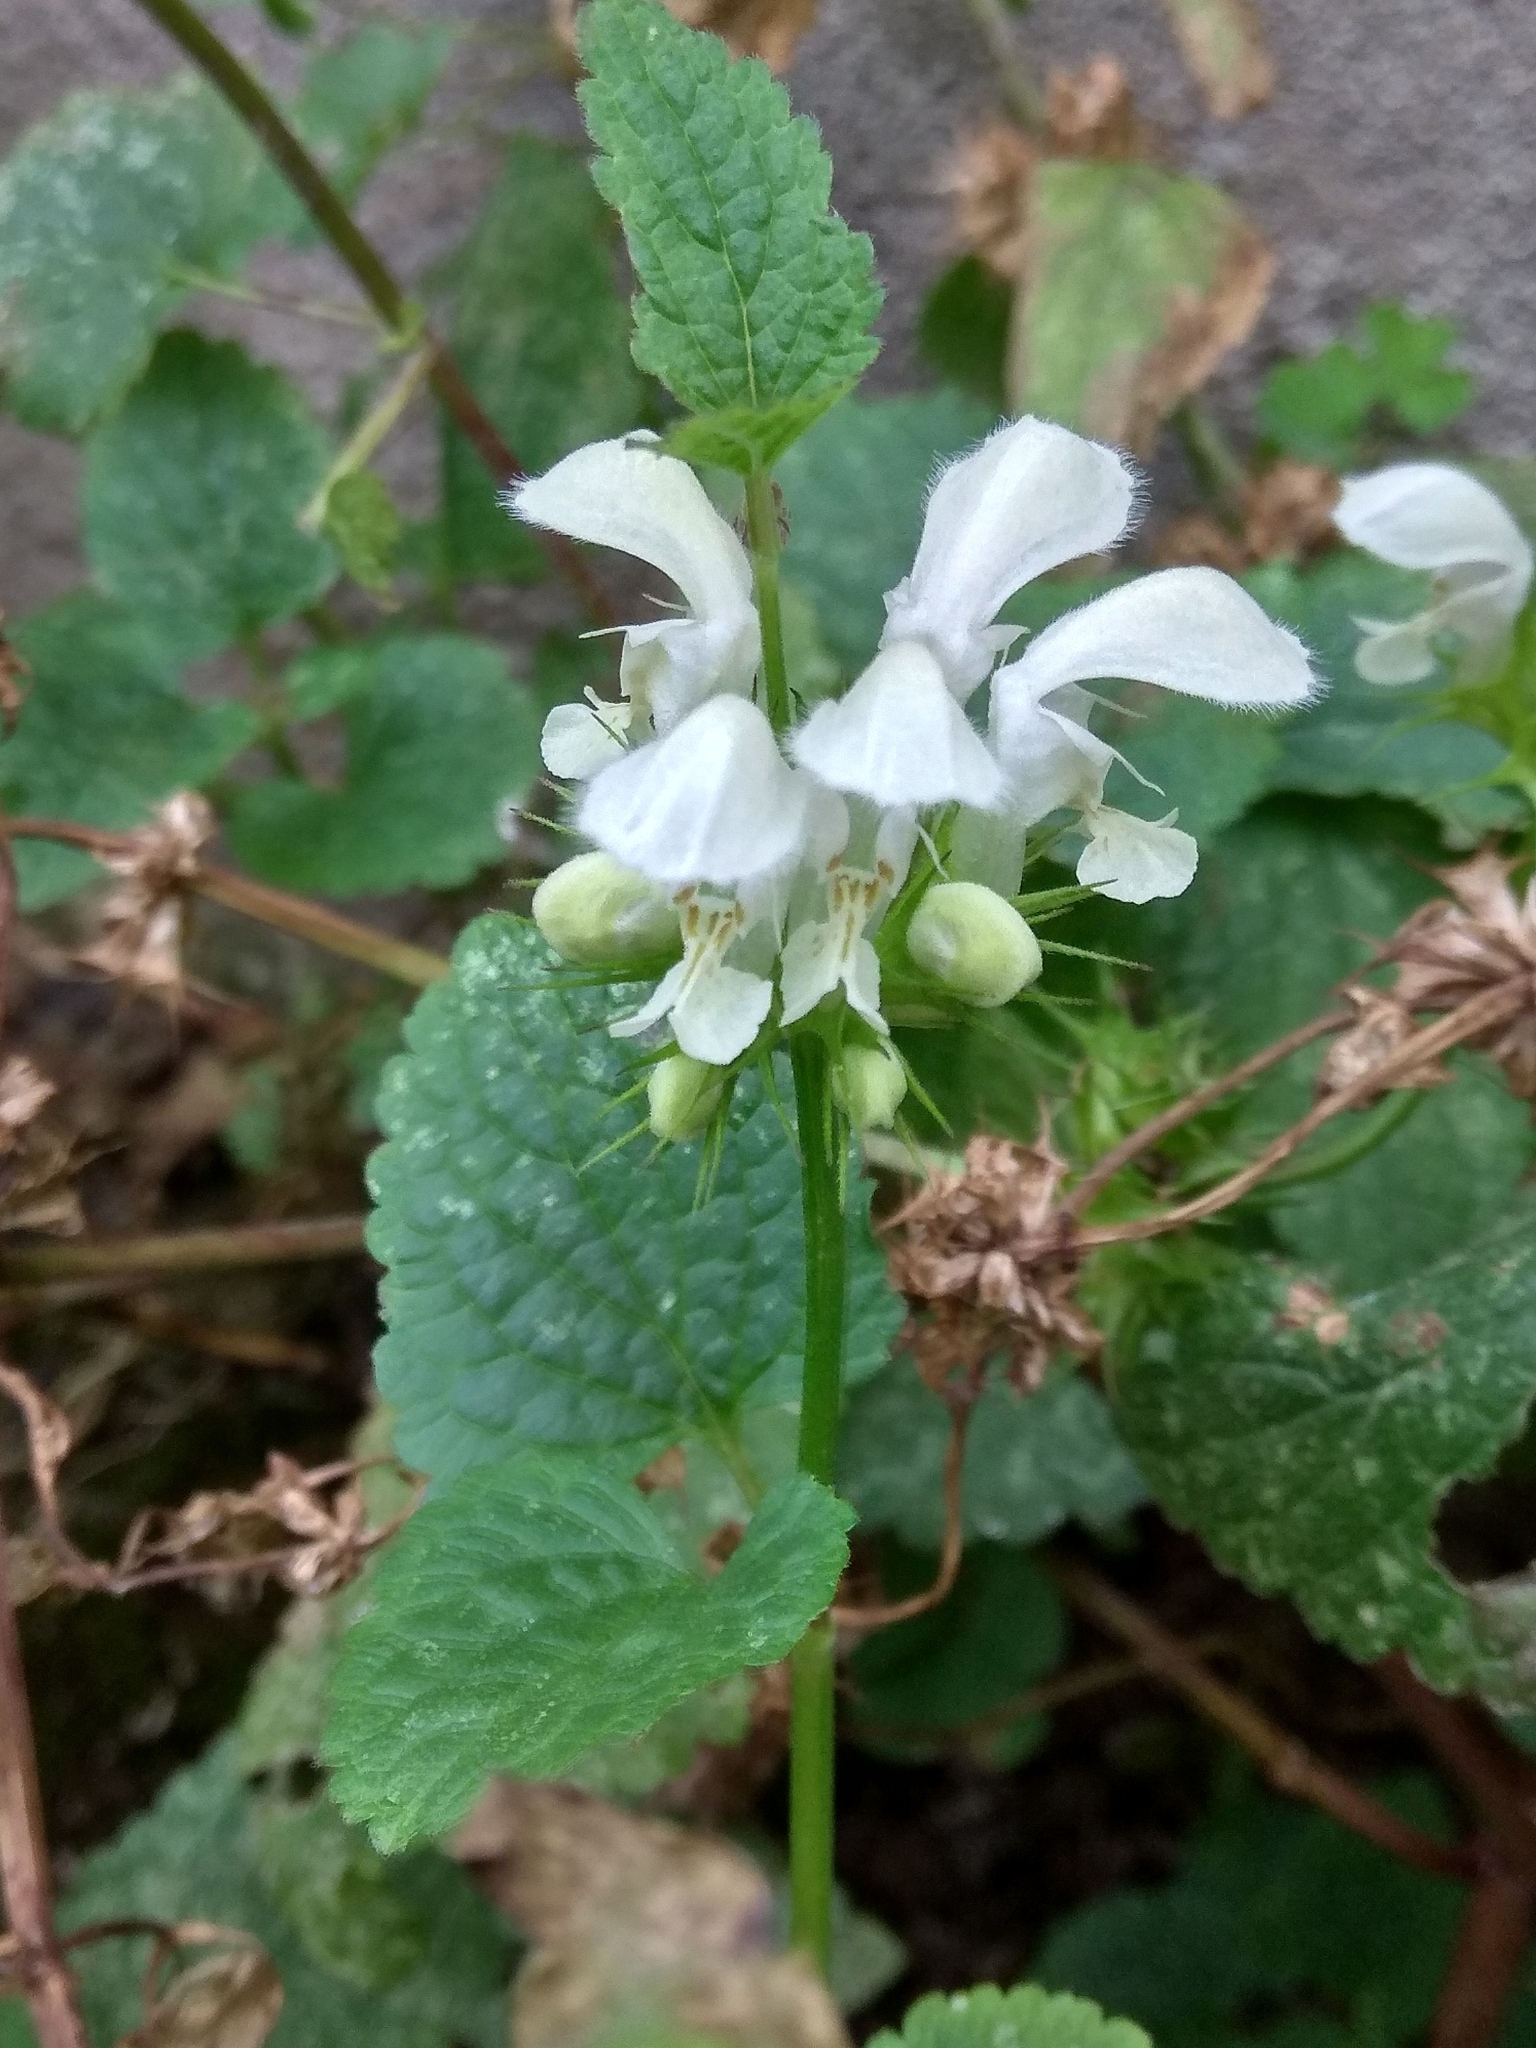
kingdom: Plantae
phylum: Tracheophyta
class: Magnoliopsida
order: Lamiales
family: Lamiaceae
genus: Lamium
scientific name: Lamium album
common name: White dead-nettle
